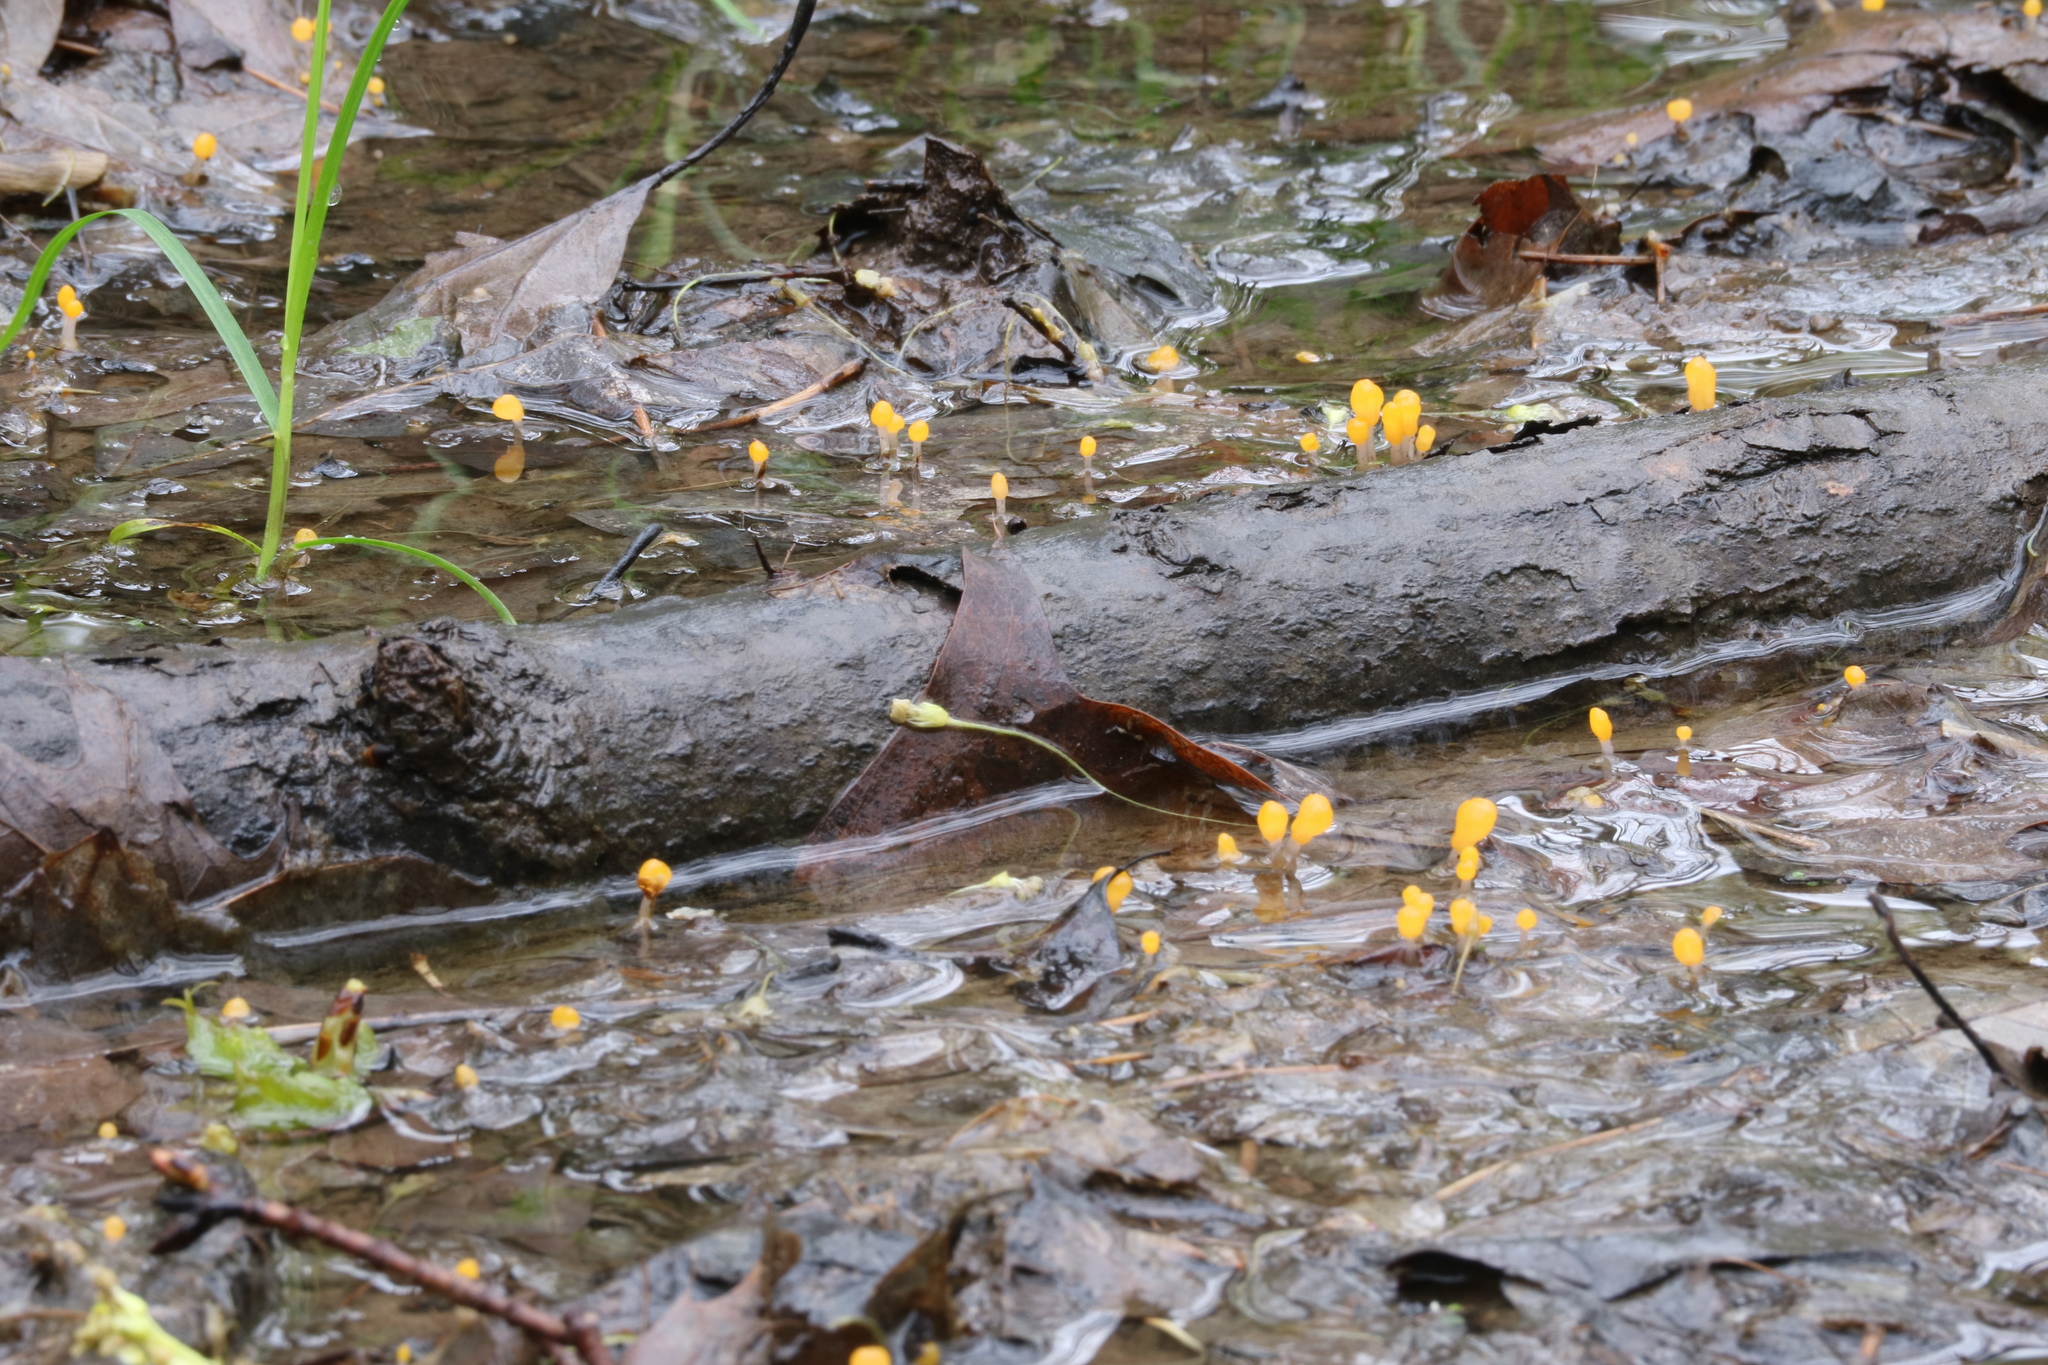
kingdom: Fungi
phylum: Ascomycota
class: Leotiomycetes
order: Helotiales
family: Sclerotiniaceae
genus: Mitrula
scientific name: Mitrula elegans
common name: Swamp beacon
